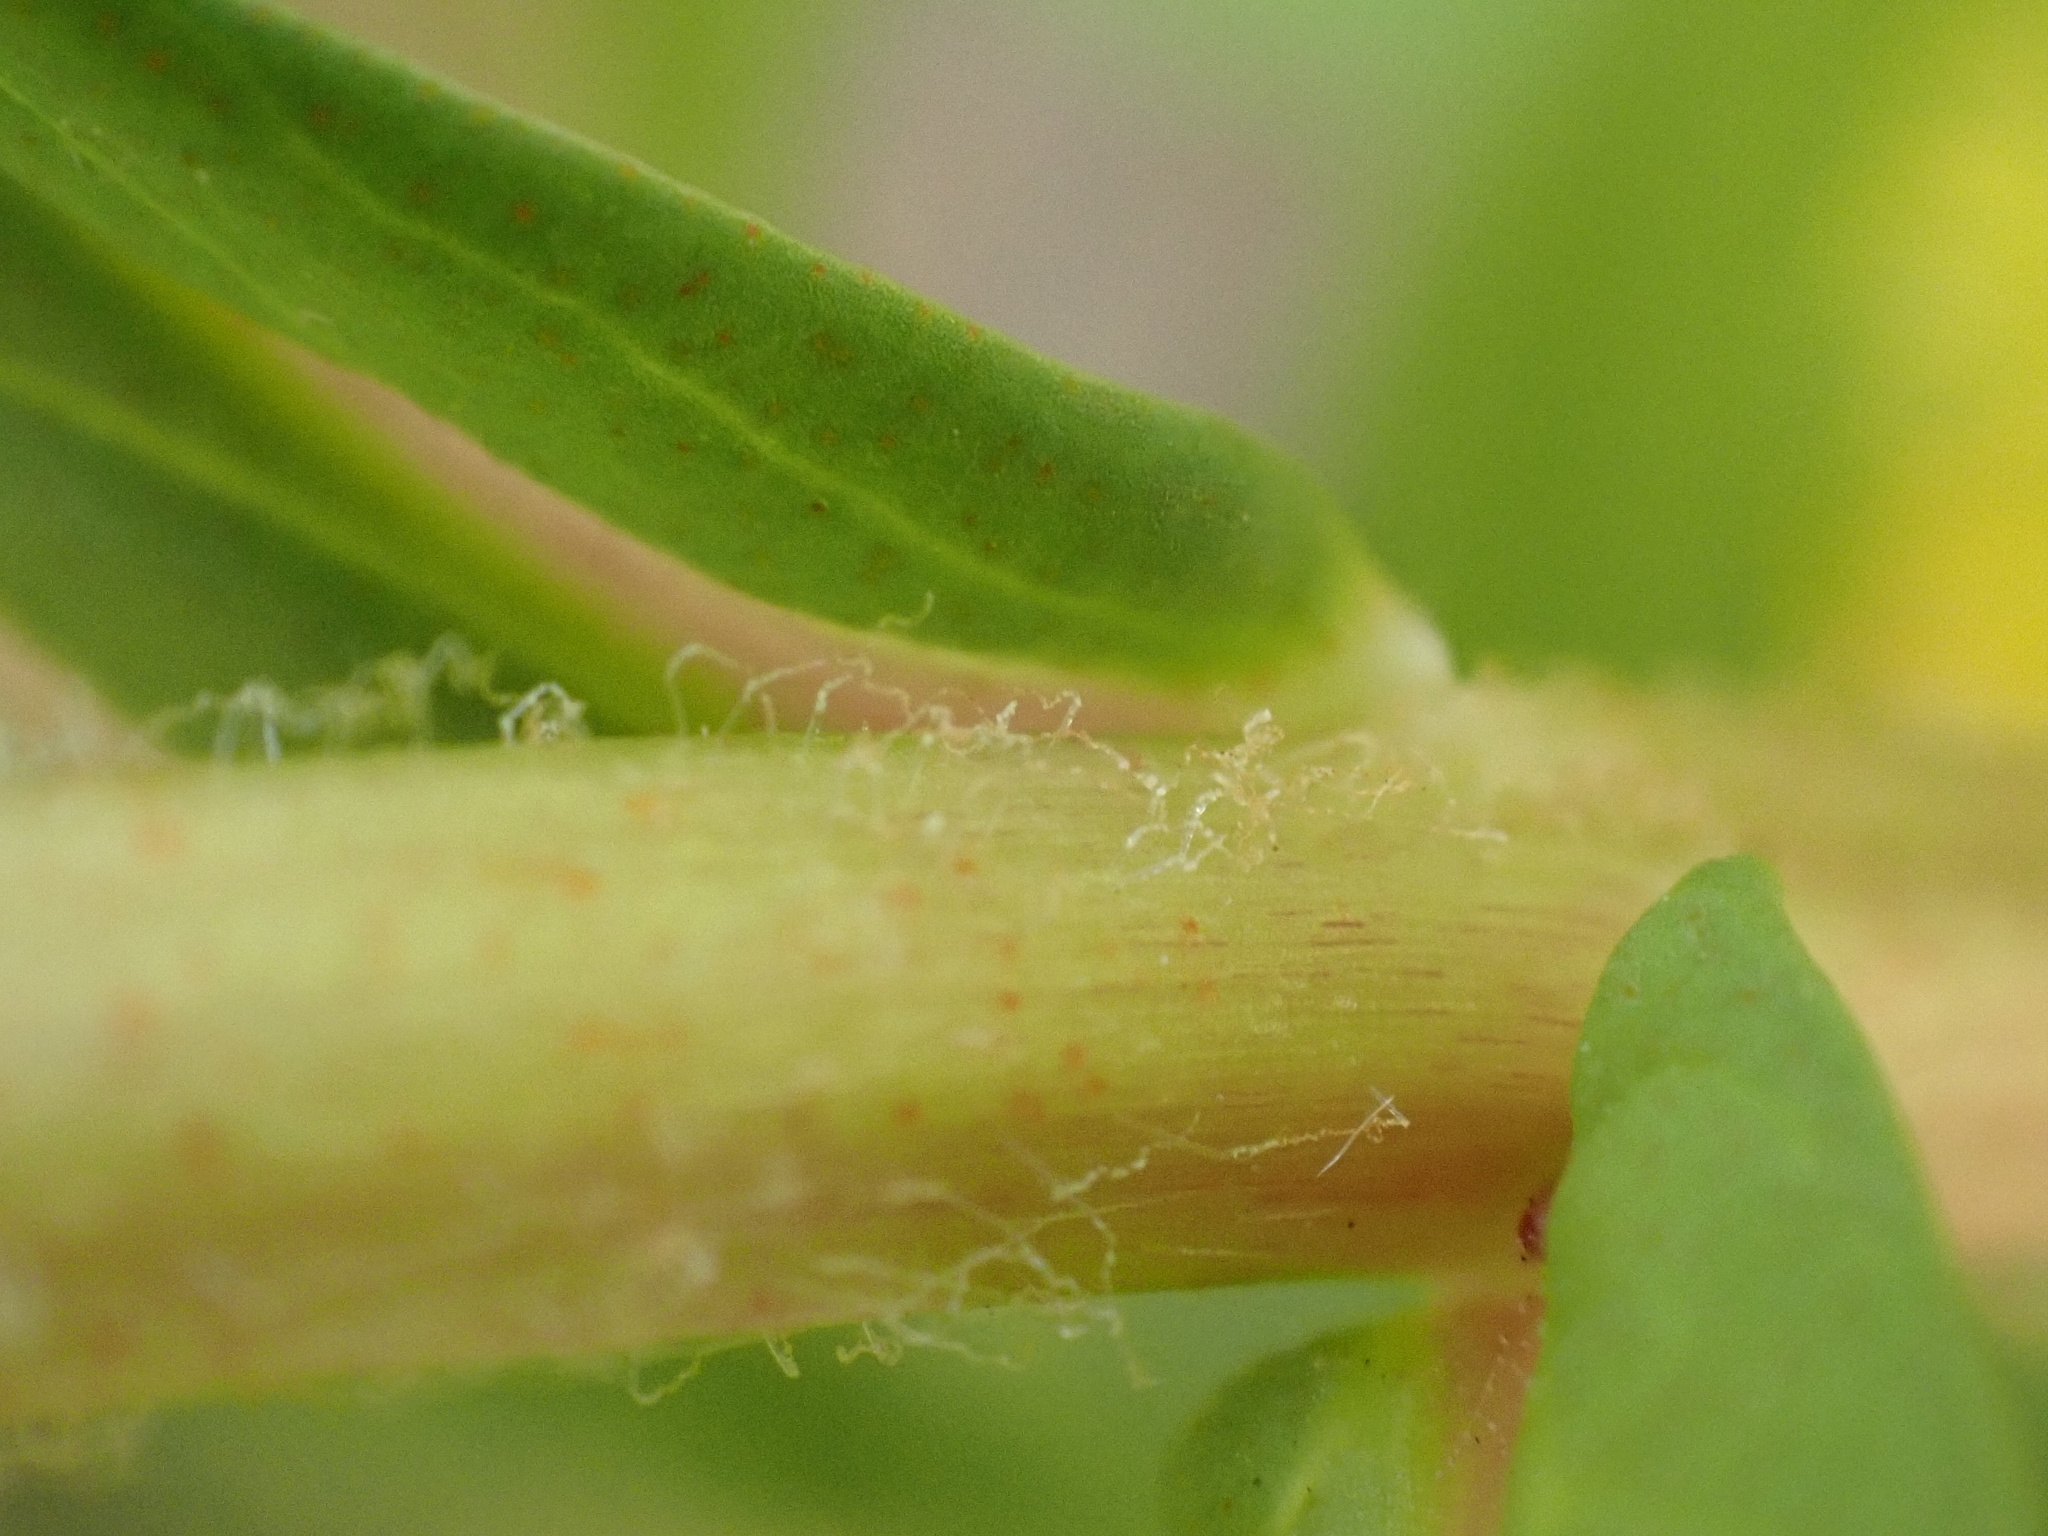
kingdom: Plantae
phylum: Tracheophyta
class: Magnoliopsida
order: Ericales
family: Primulaceae
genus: Lysimachia
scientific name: Lysimachia thyrsiflora
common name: Tufted loosestrife
